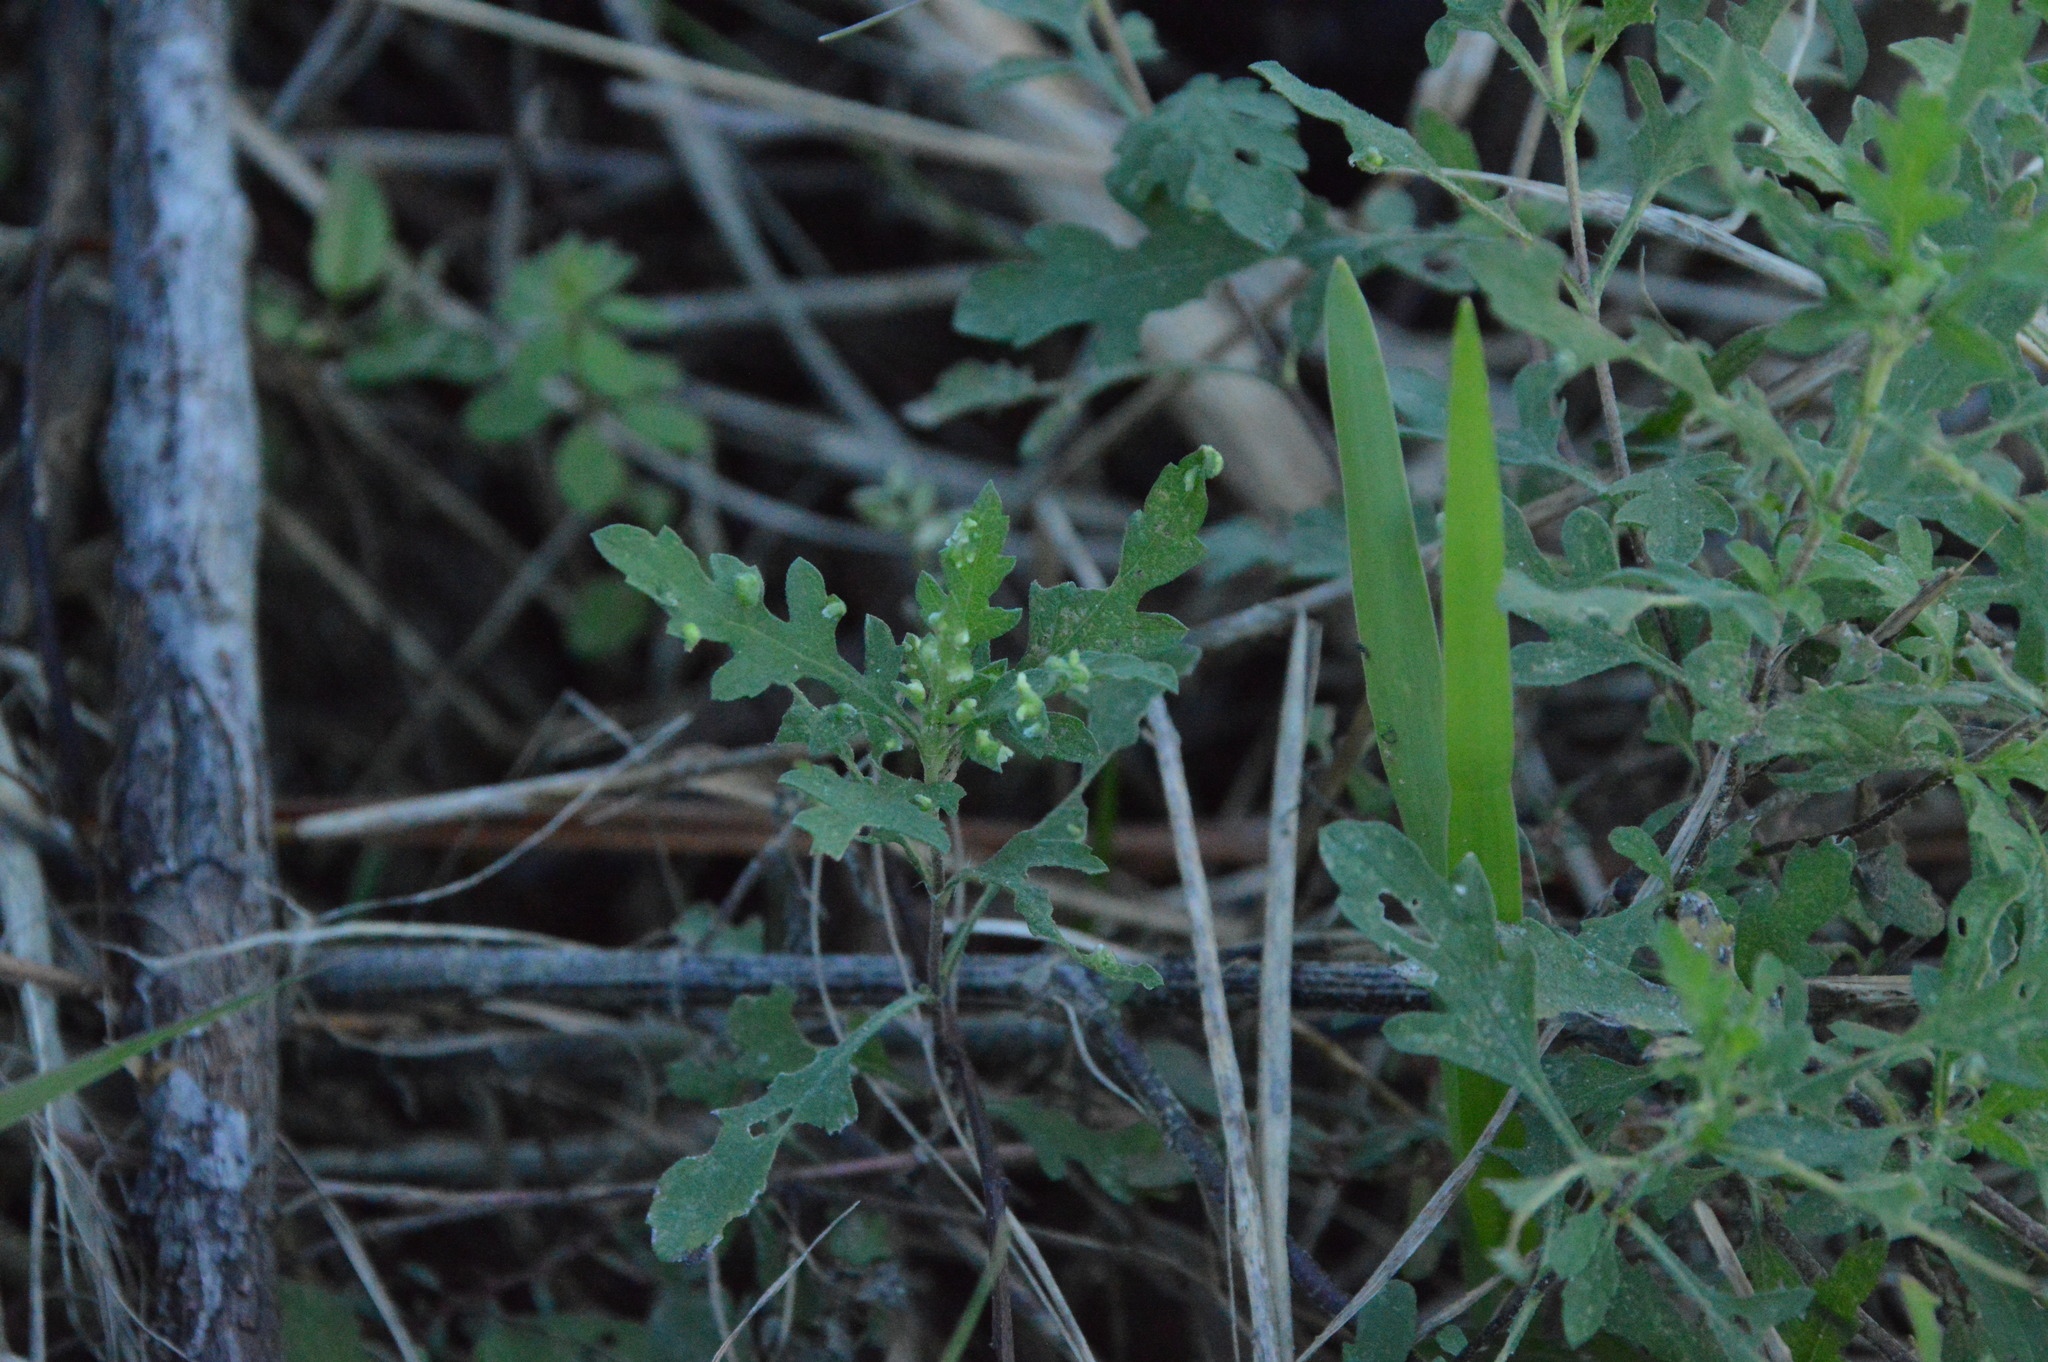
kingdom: Animalia
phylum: Arthropoda
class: Arachnida
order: Trombidiformes
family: Eriophyidae
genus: Aceria
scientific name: Aceria
